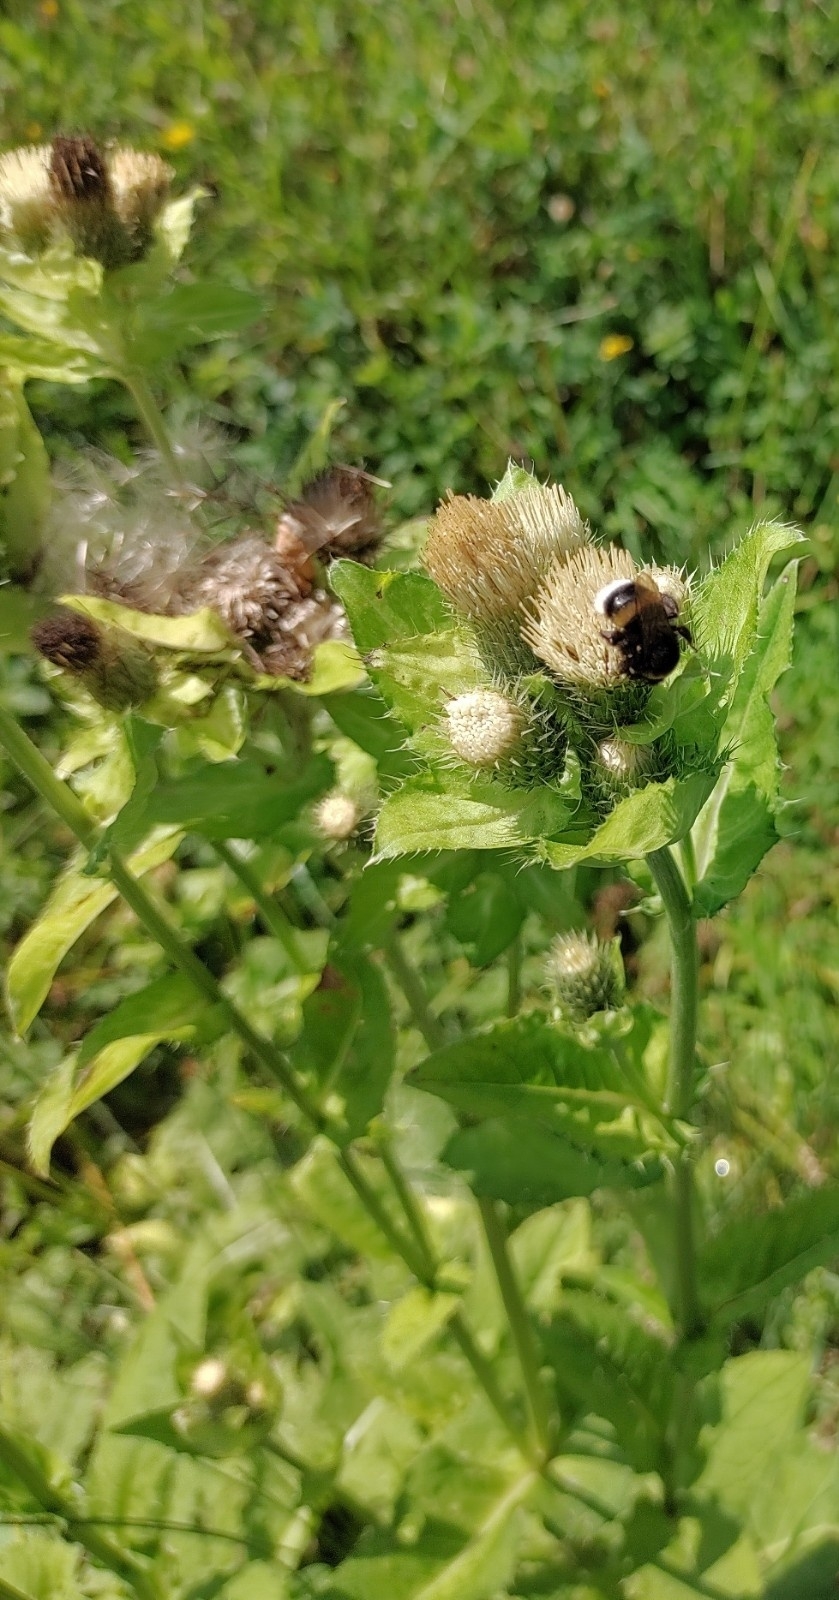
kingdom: Plantae
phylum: Tracheophyta
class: Magnoliopsida
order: Asterales
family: Asteraceae
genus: Cirsium
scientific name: Cirsium oleraceum
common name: Cabbage thistle
